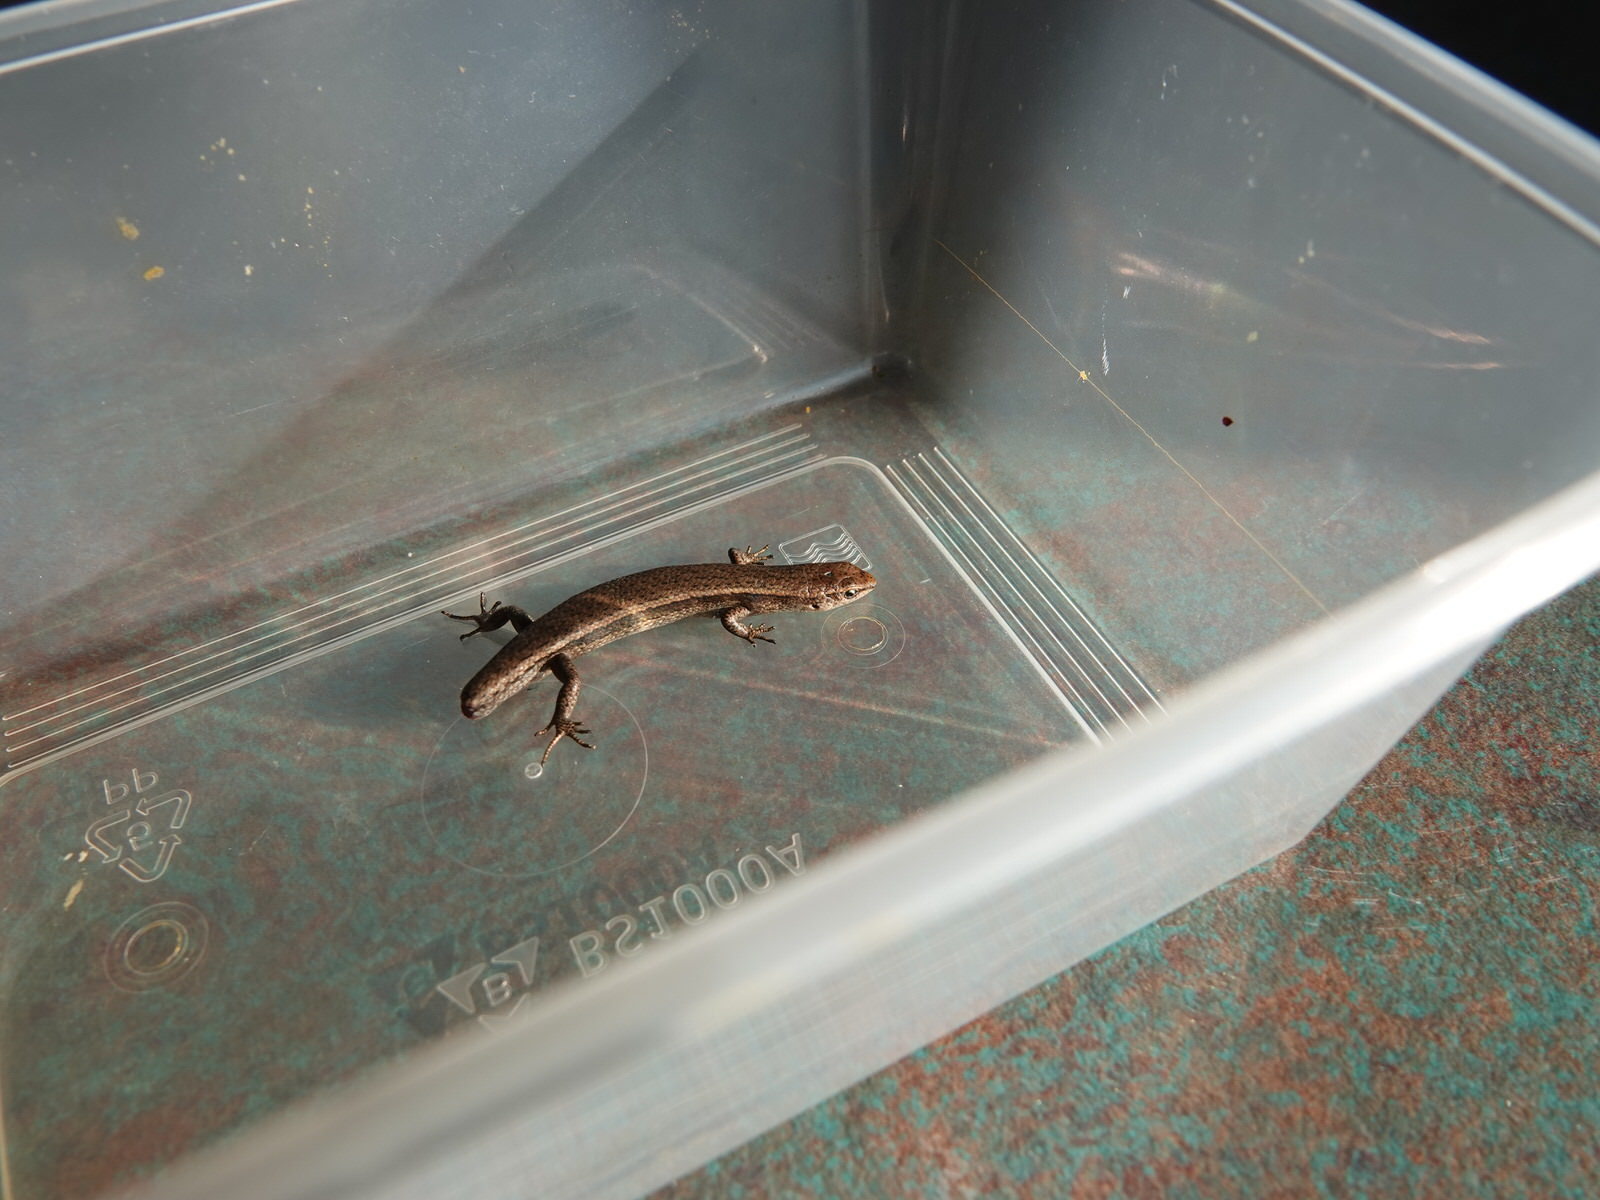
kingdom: Animalia
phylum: Chordata
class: Squamata
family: Scincidae
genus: Lampropholis
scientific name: Lampropholis delicata
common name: Plague skink
